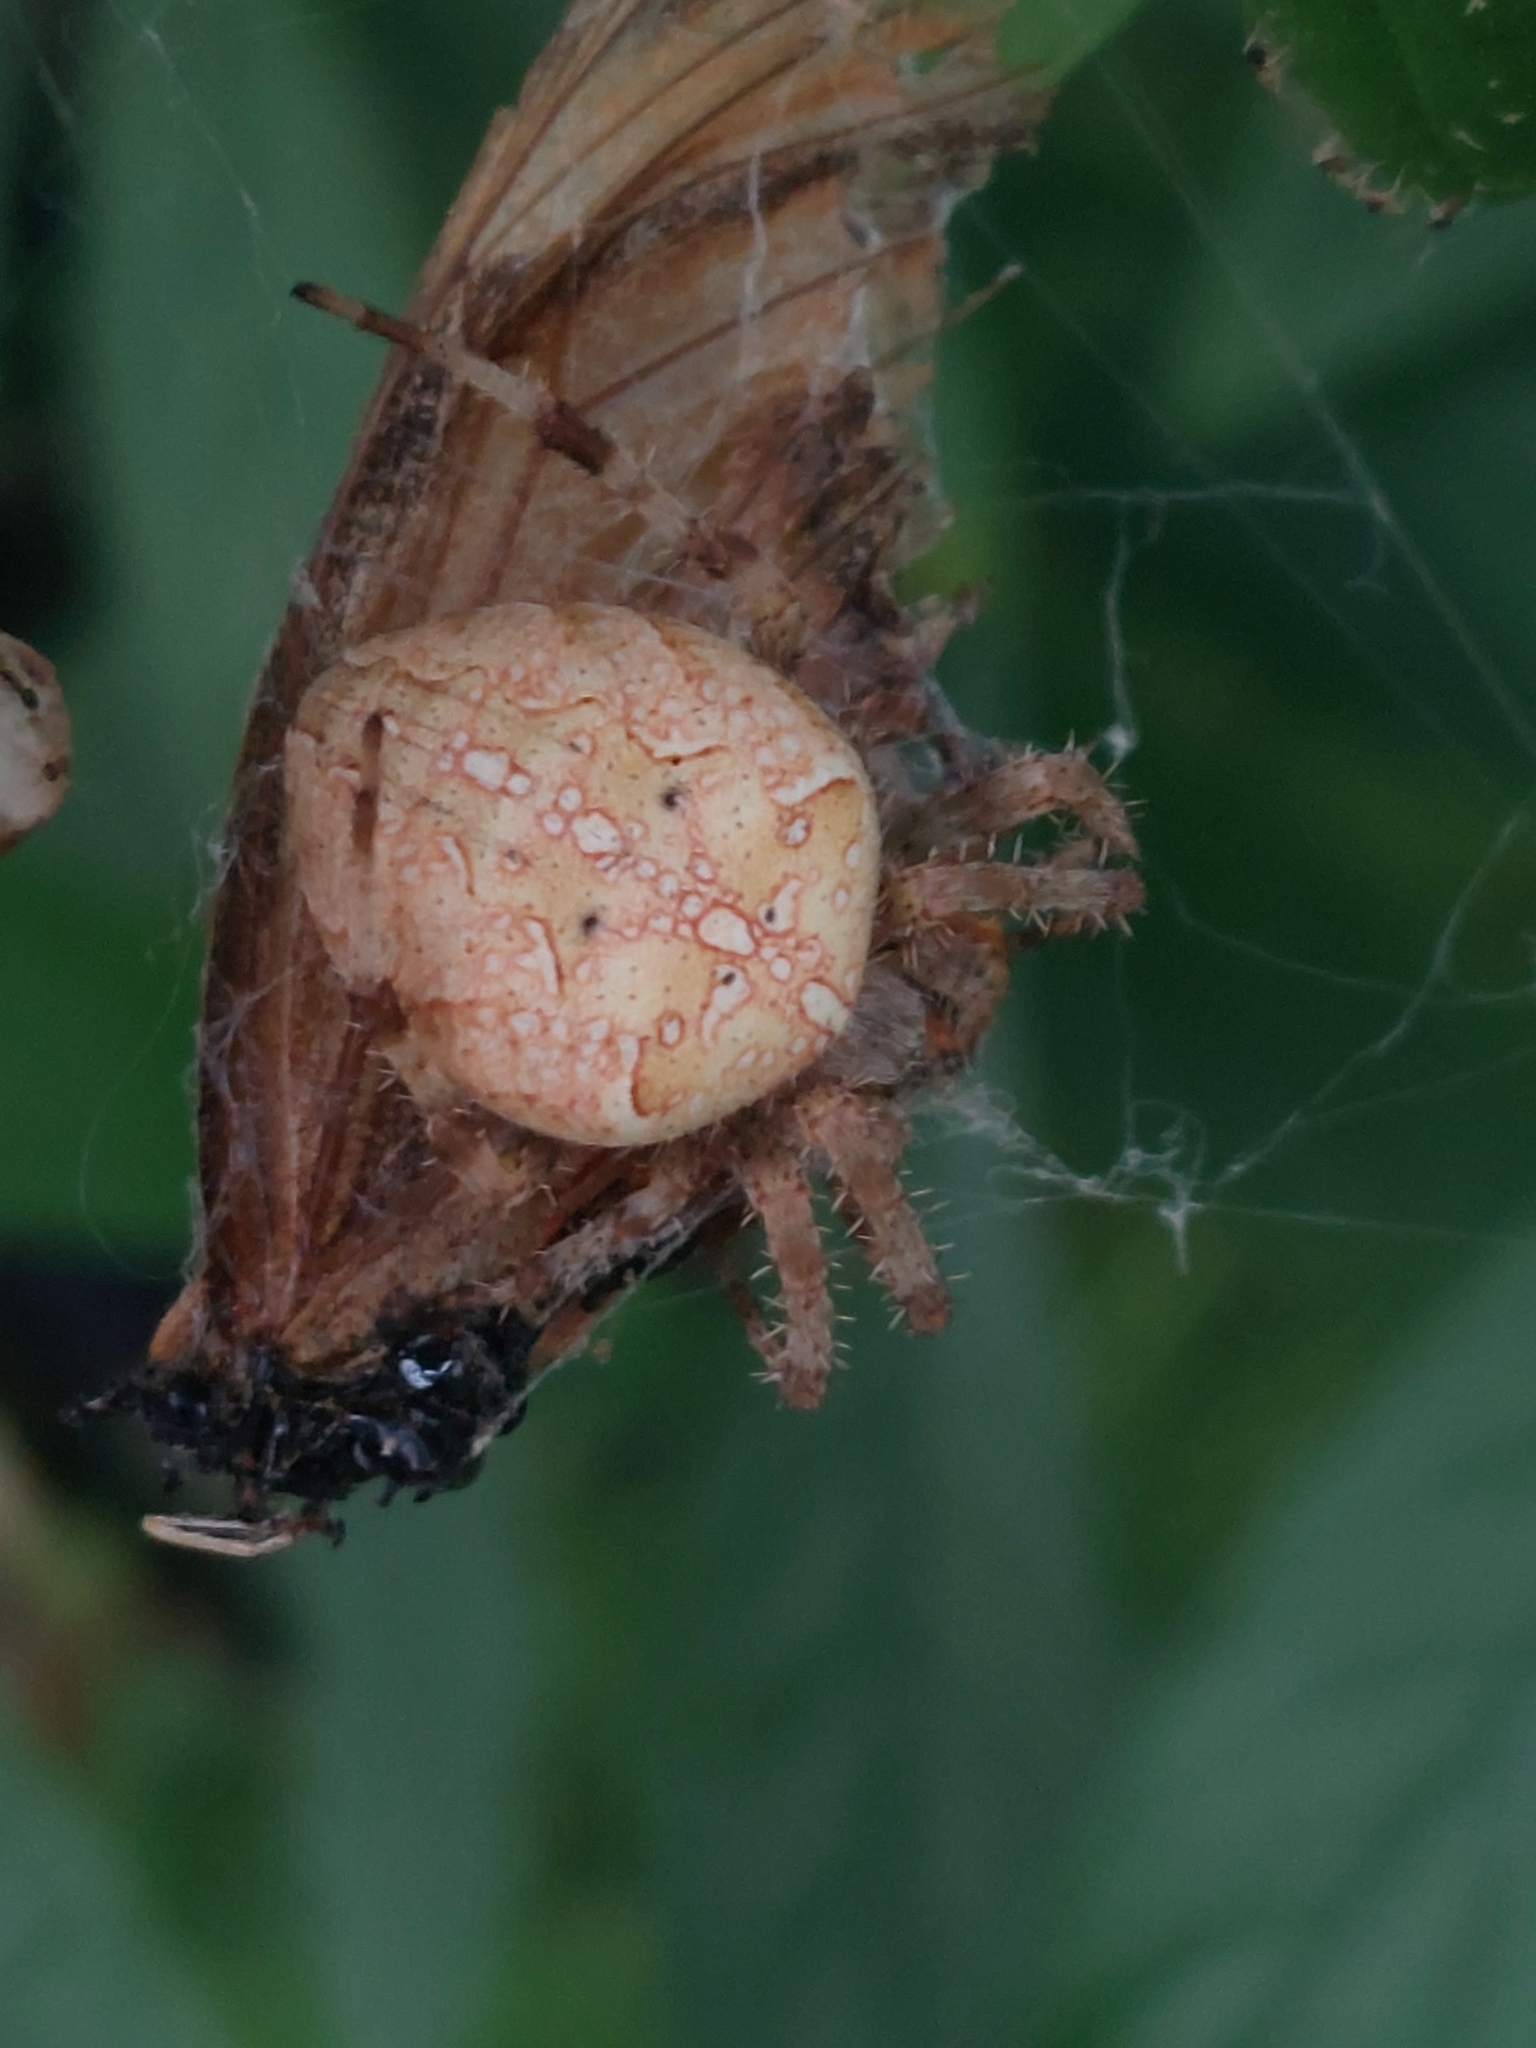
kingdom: Animalia
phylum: Arthropoda
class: Arachnida
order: Araneae
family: Araneidae
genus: Araneus
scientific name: Araneus diadematus
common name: Cross orbweaver
